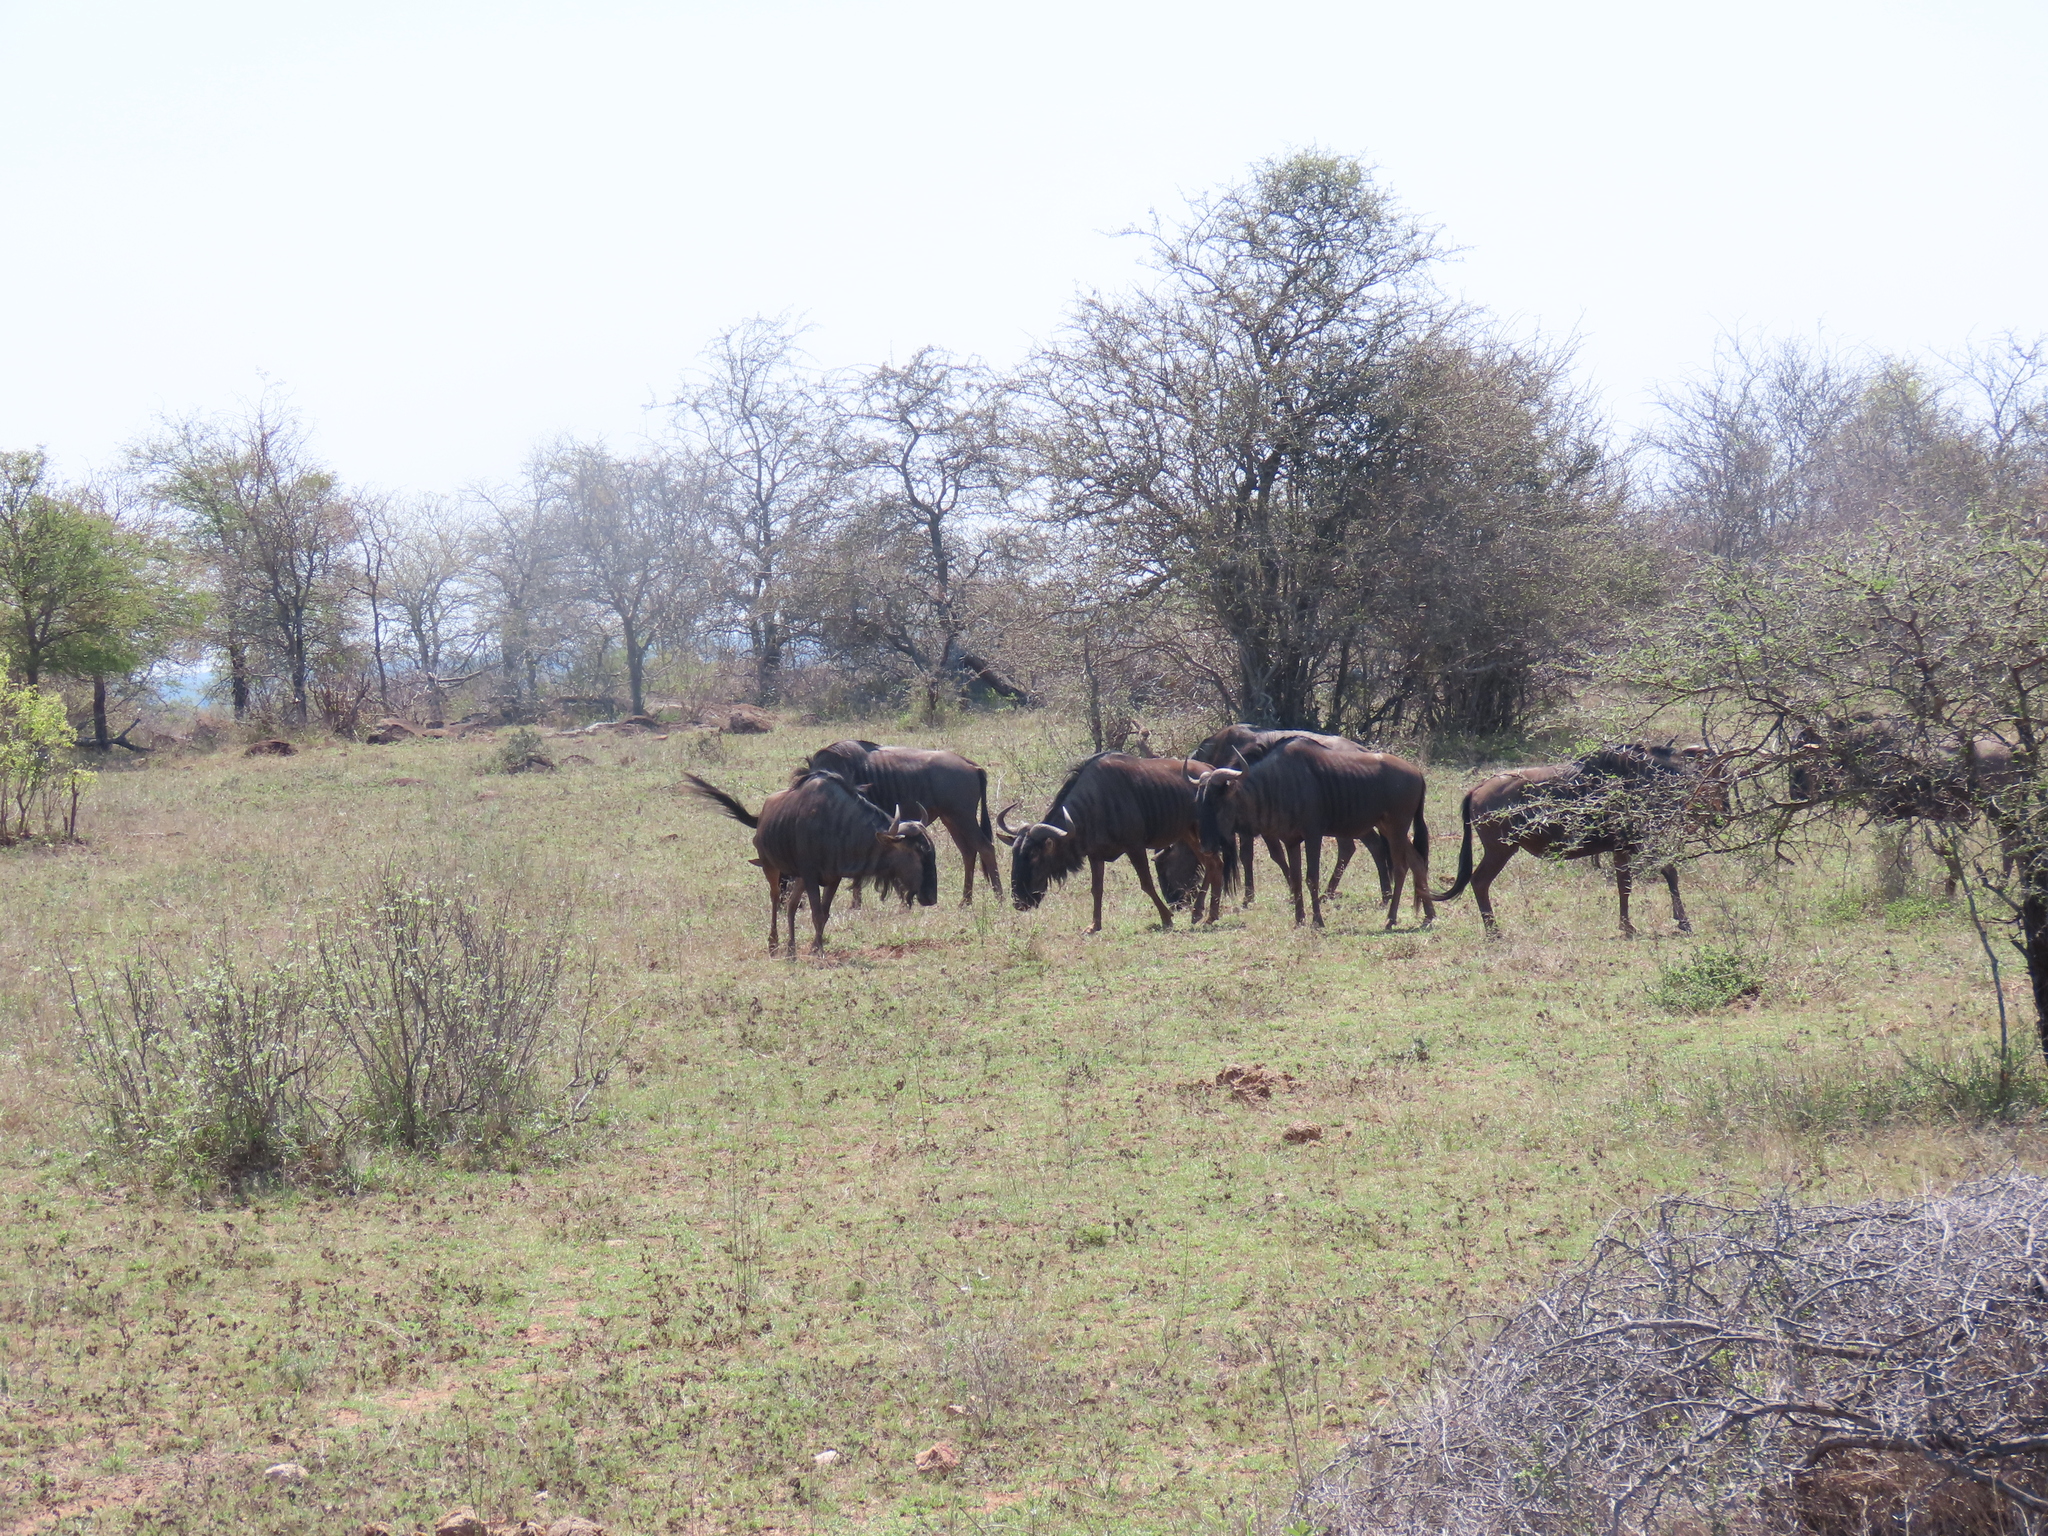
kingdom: Animalia
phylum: Chordata
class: Mammalia
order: Artiodactyla
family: Bovidae
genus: Connochaetes
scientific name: Connochaetes taurinus
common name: Blue wildebeest
